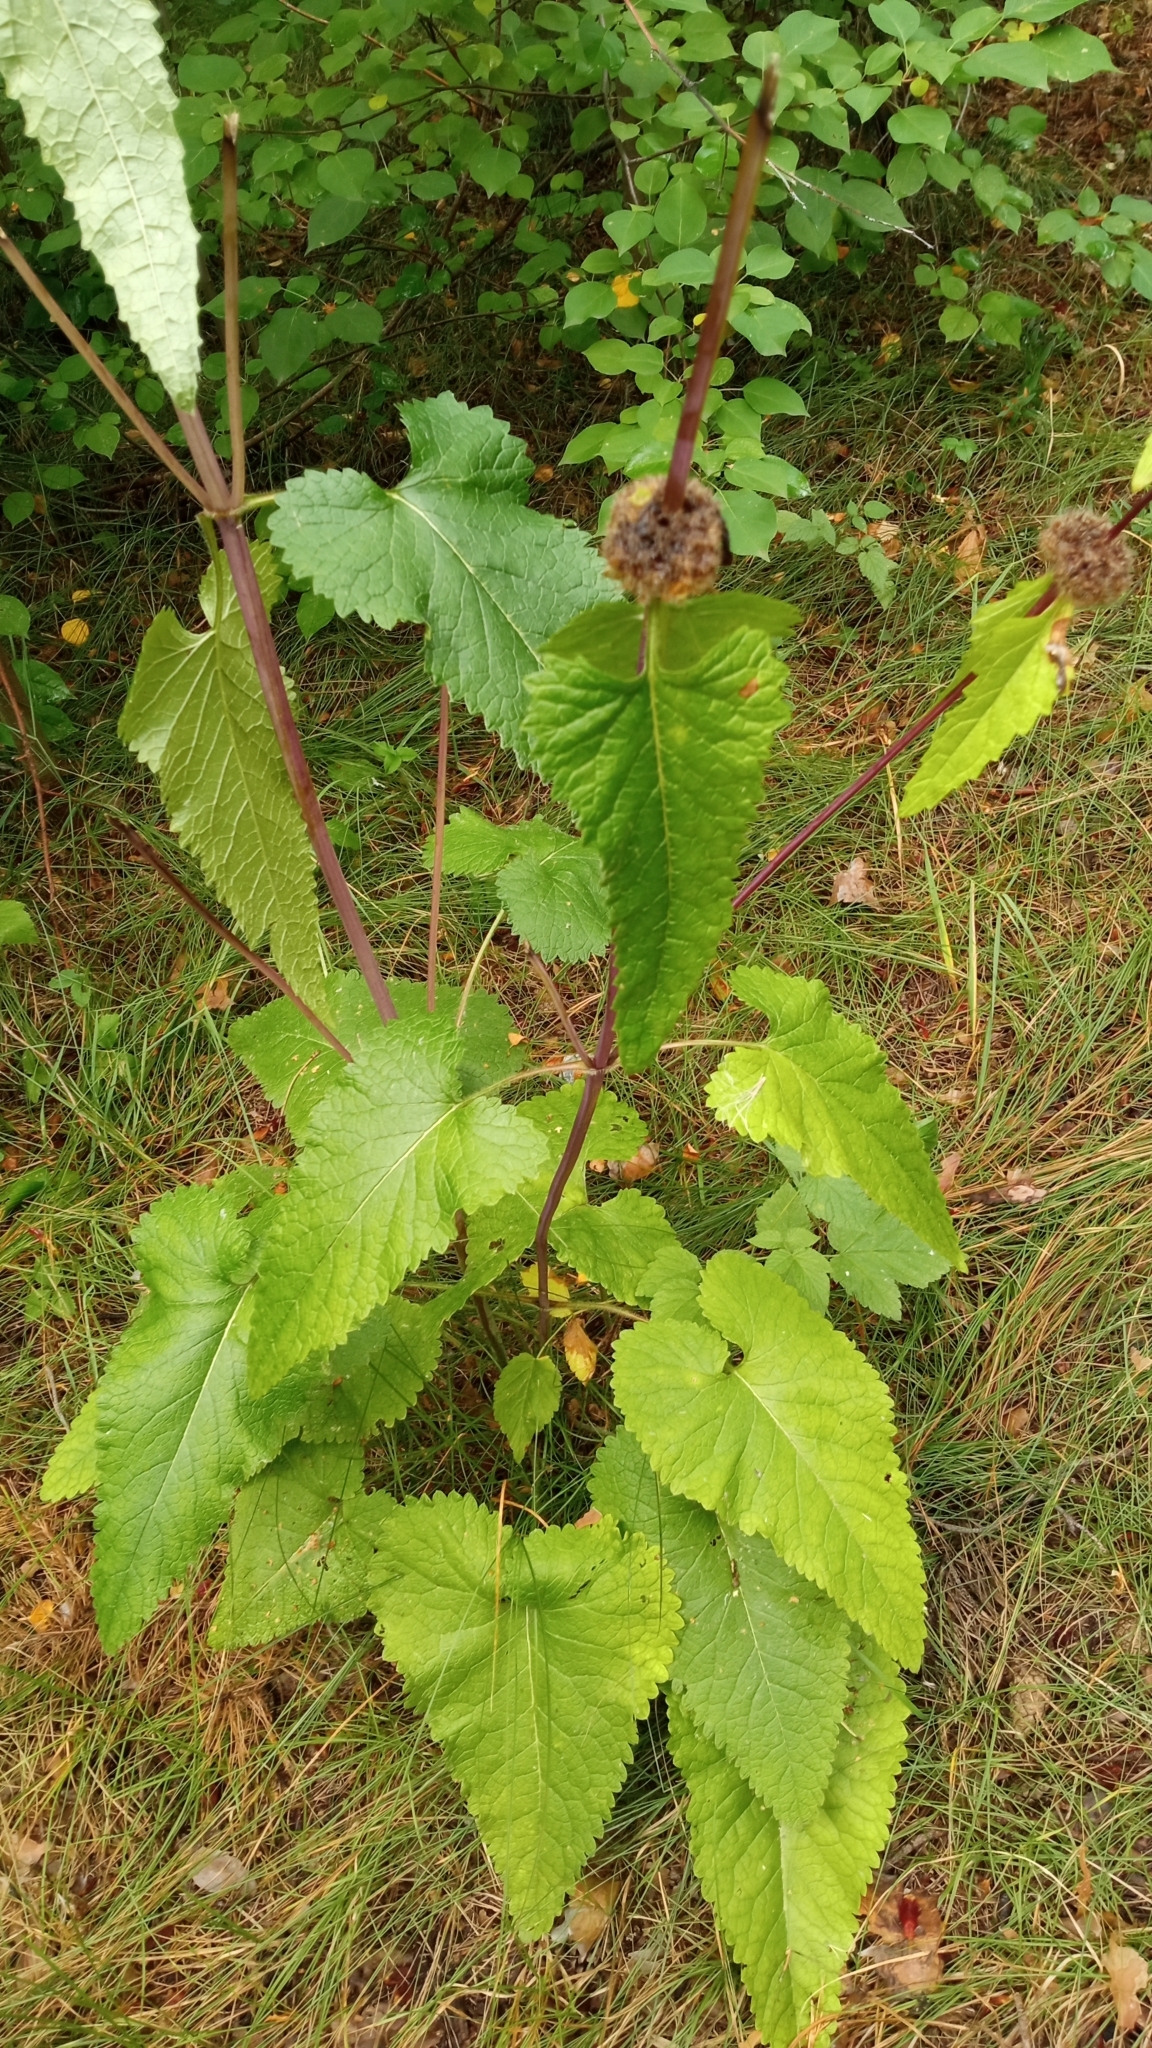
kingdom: Plantae
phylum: Tracheophyta
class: Magnoliopsida
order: Lamiales
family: Lamiaceae
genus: Phlomoides
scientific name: Phlomoides tuberosa
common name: Tuberous jerusalem sage
